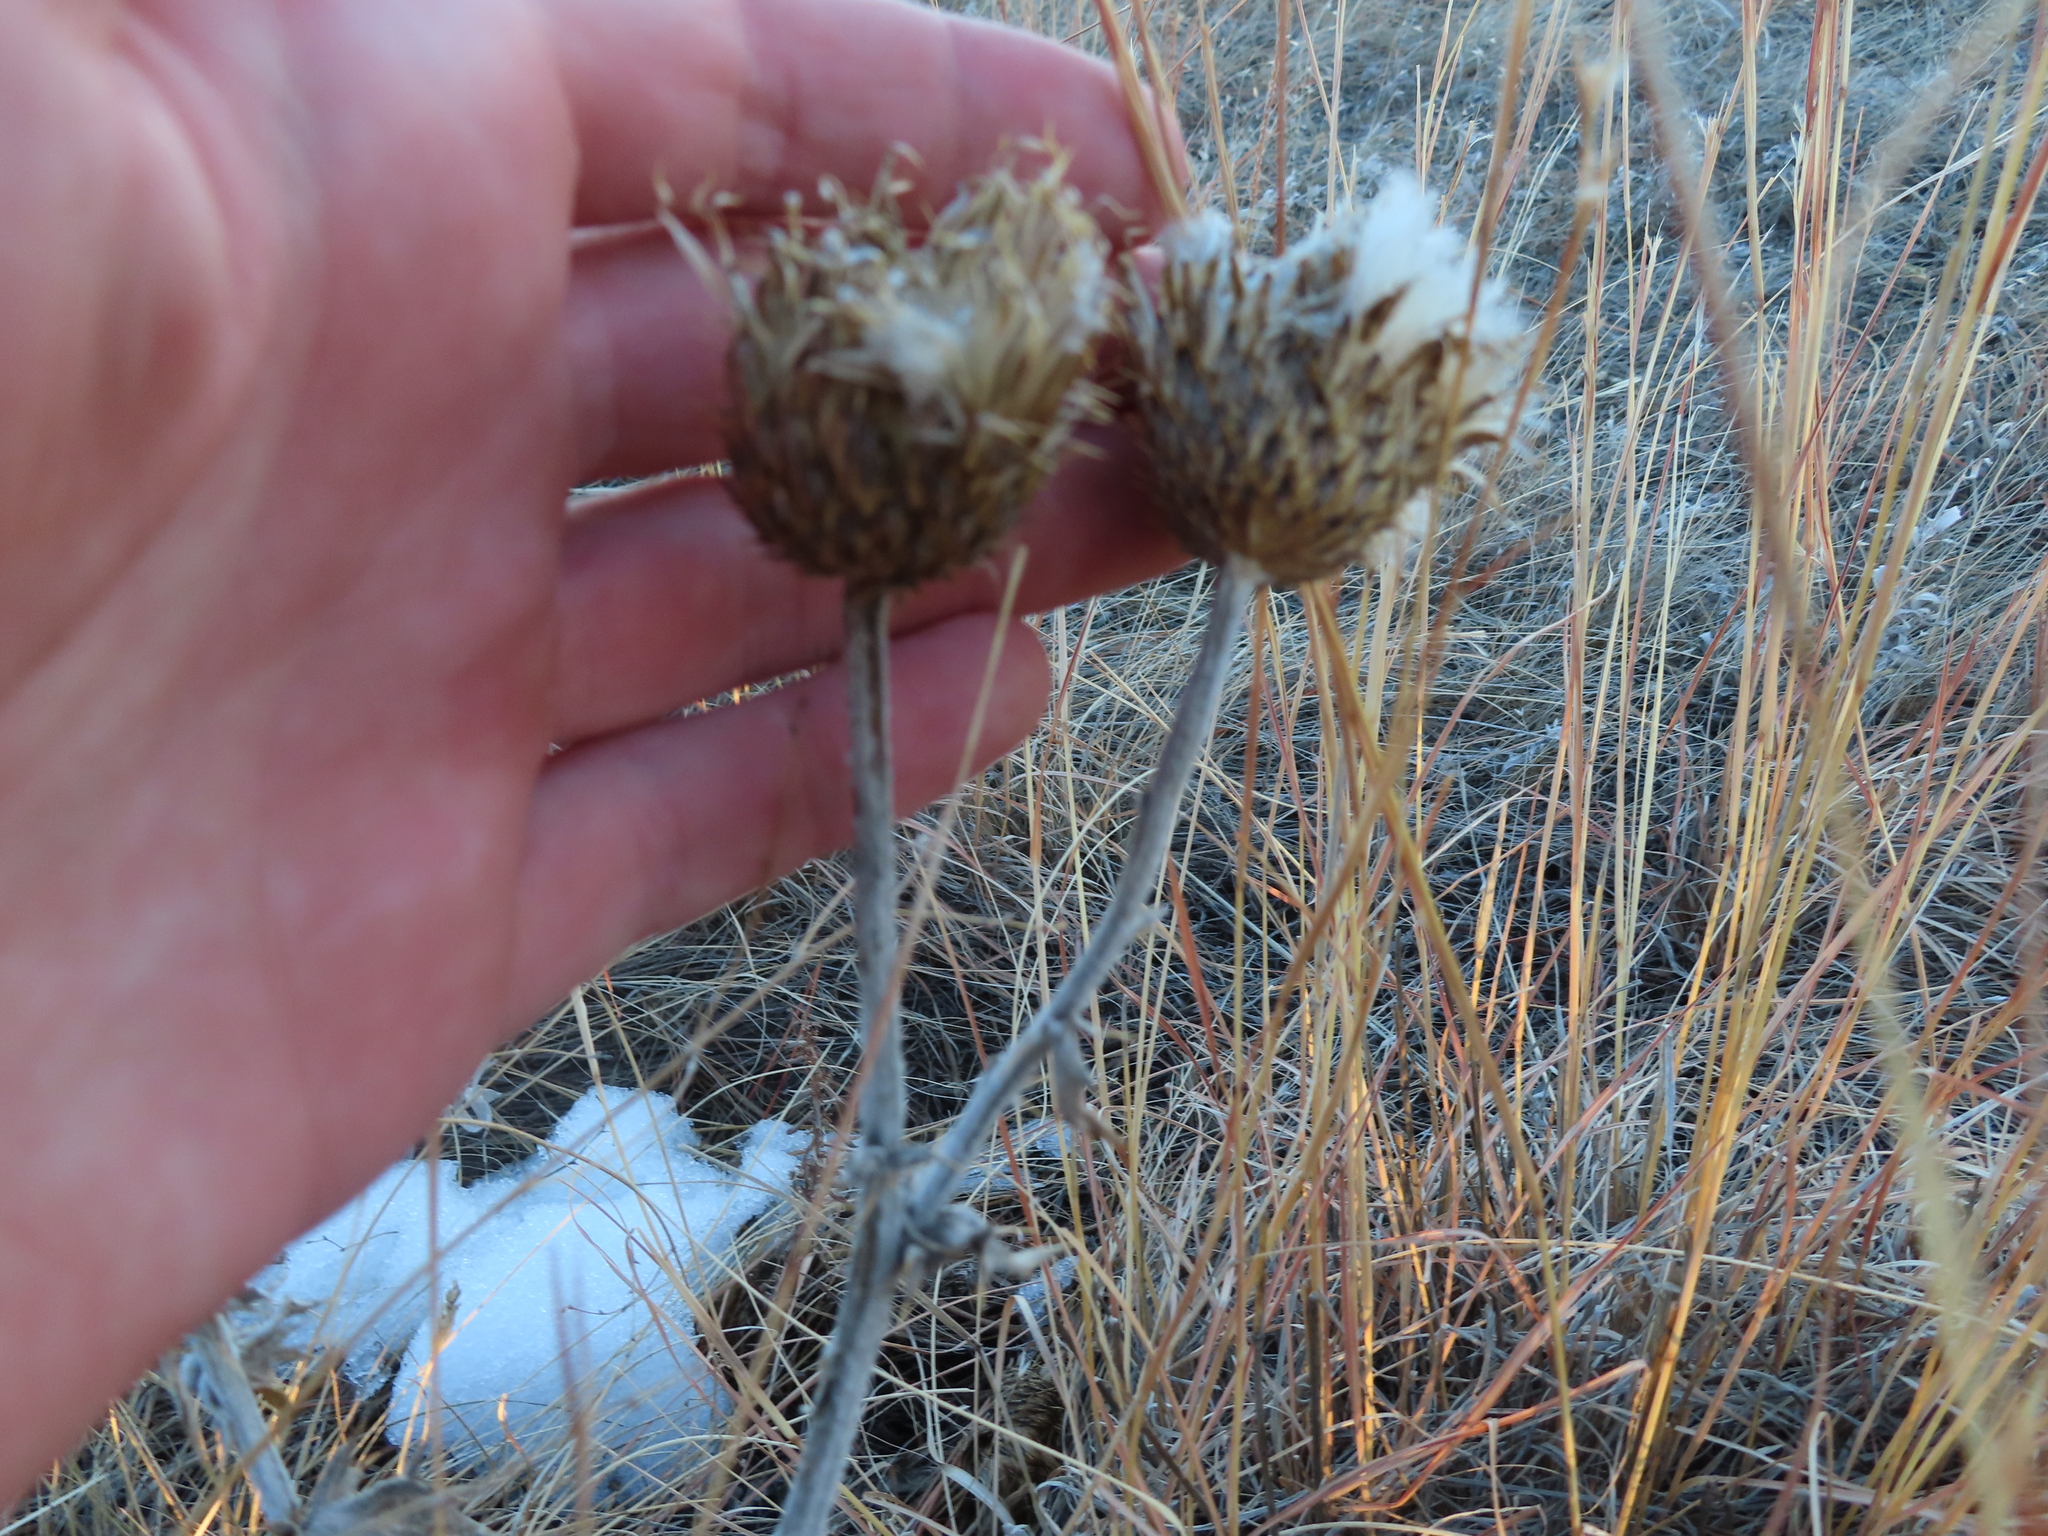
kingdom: Plantae
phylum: Tracheophyta
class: Magnoliopsida
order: Asterales
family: Asteraceae
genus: Cirsium
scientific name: Cirsium undulatum
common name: Pasture thistle
